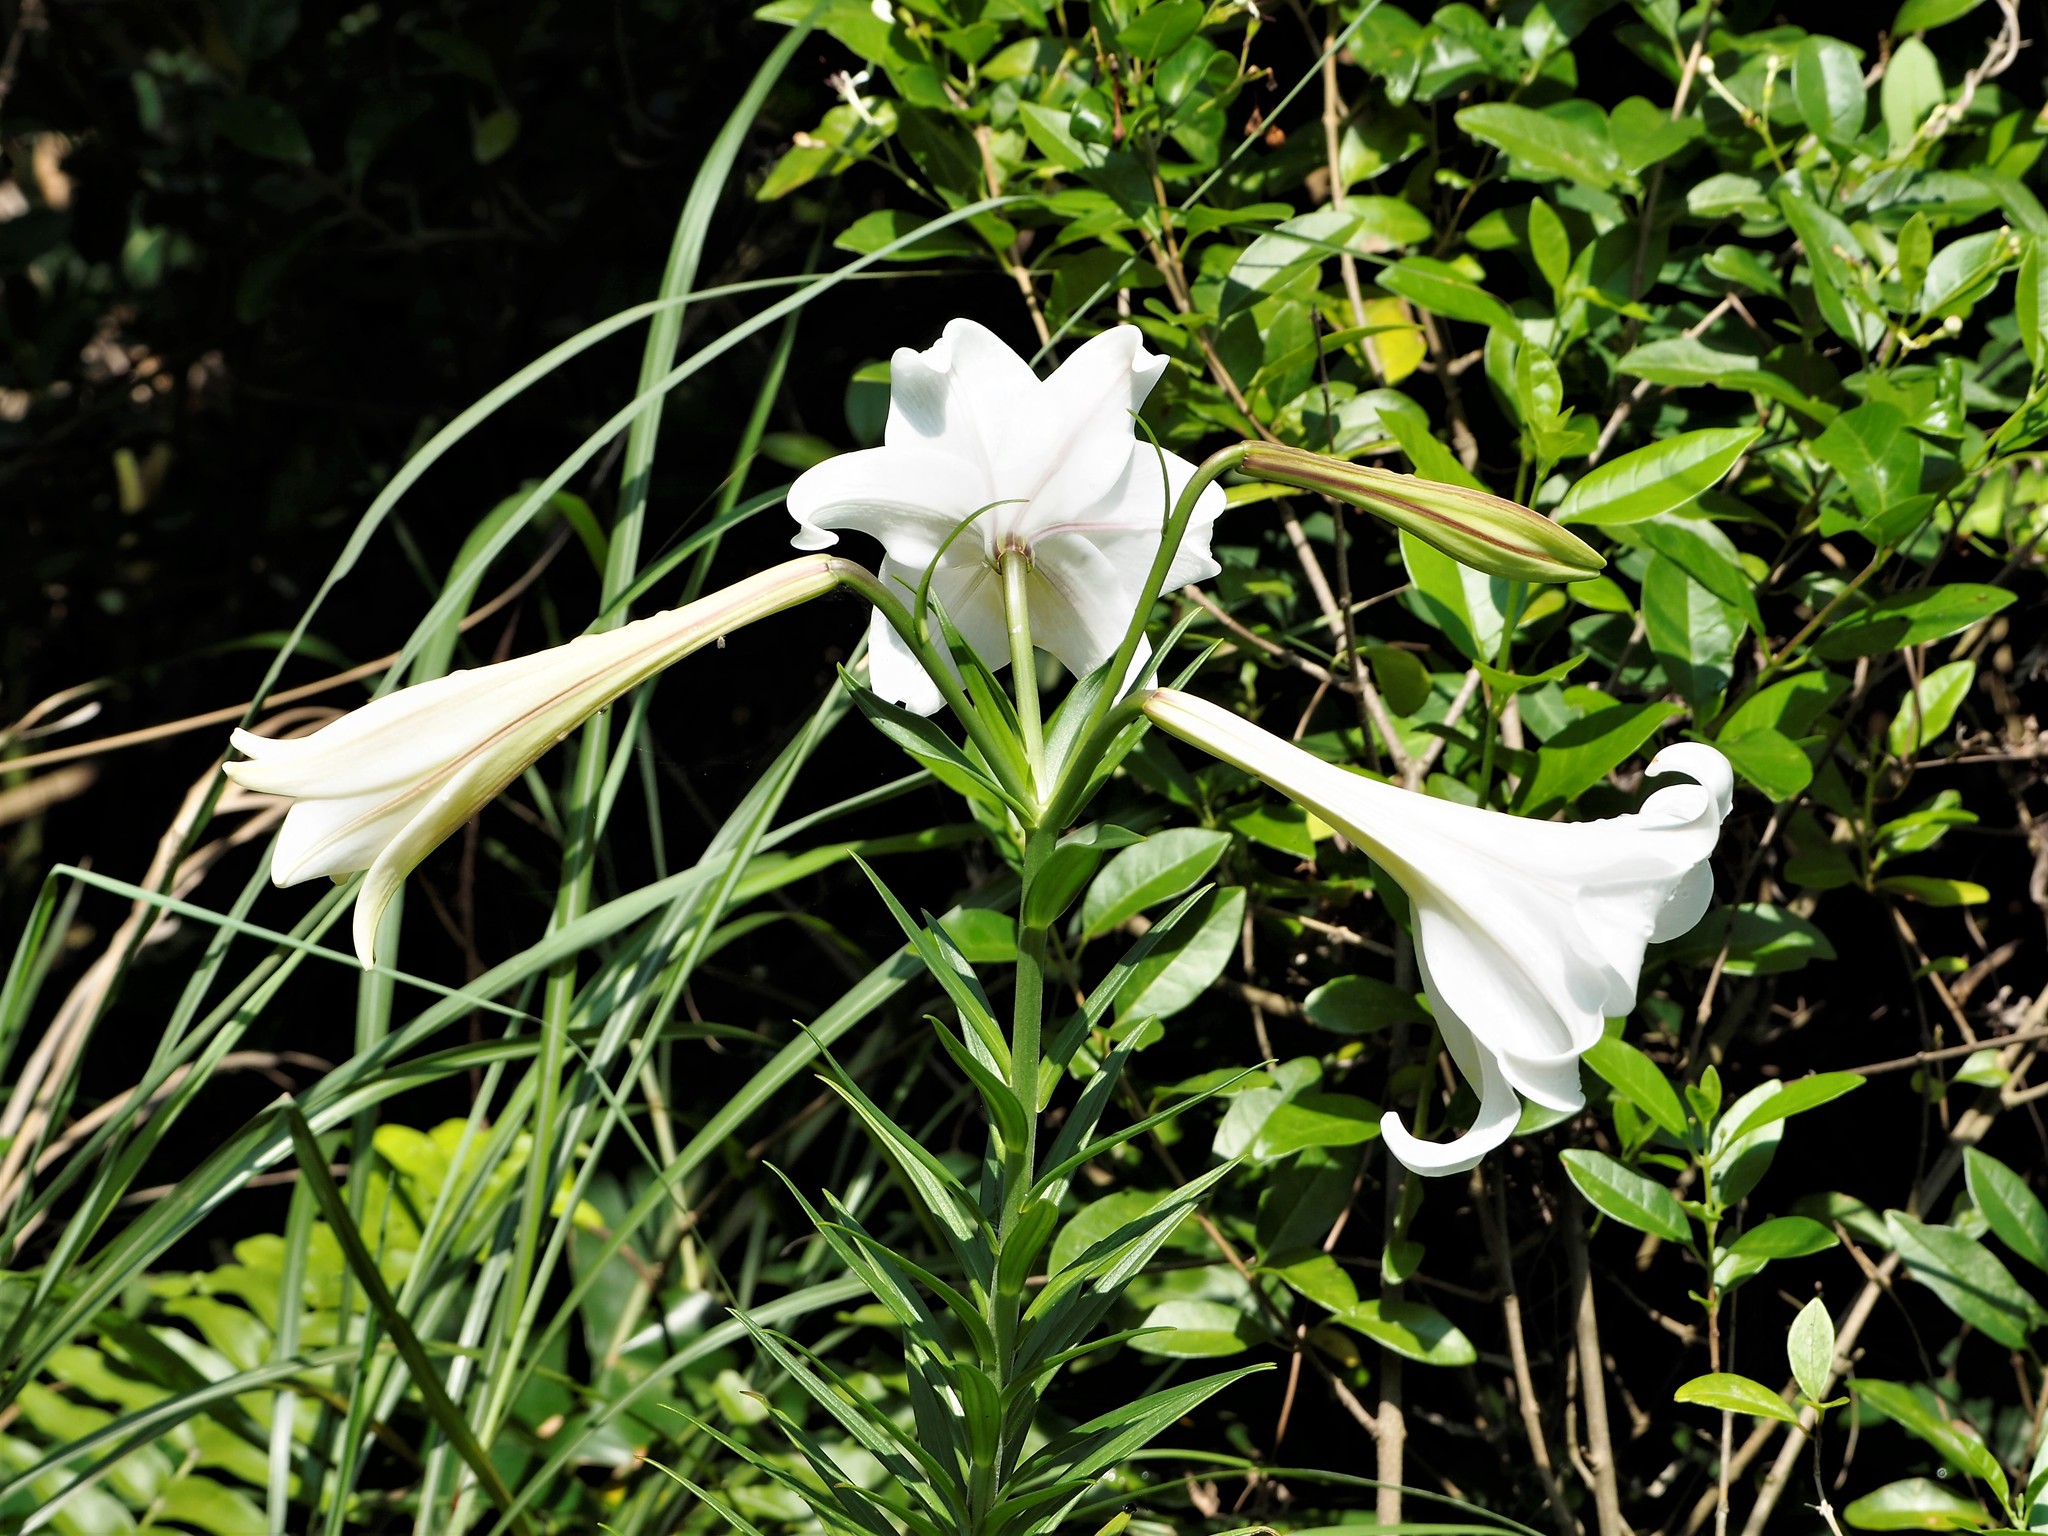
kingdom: Plantae
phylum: Tracheophyta
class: Liliopsida
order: Liliales
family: Liliaceae
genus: Lilium
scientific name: Lilium longiflorum
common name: Easter lily
